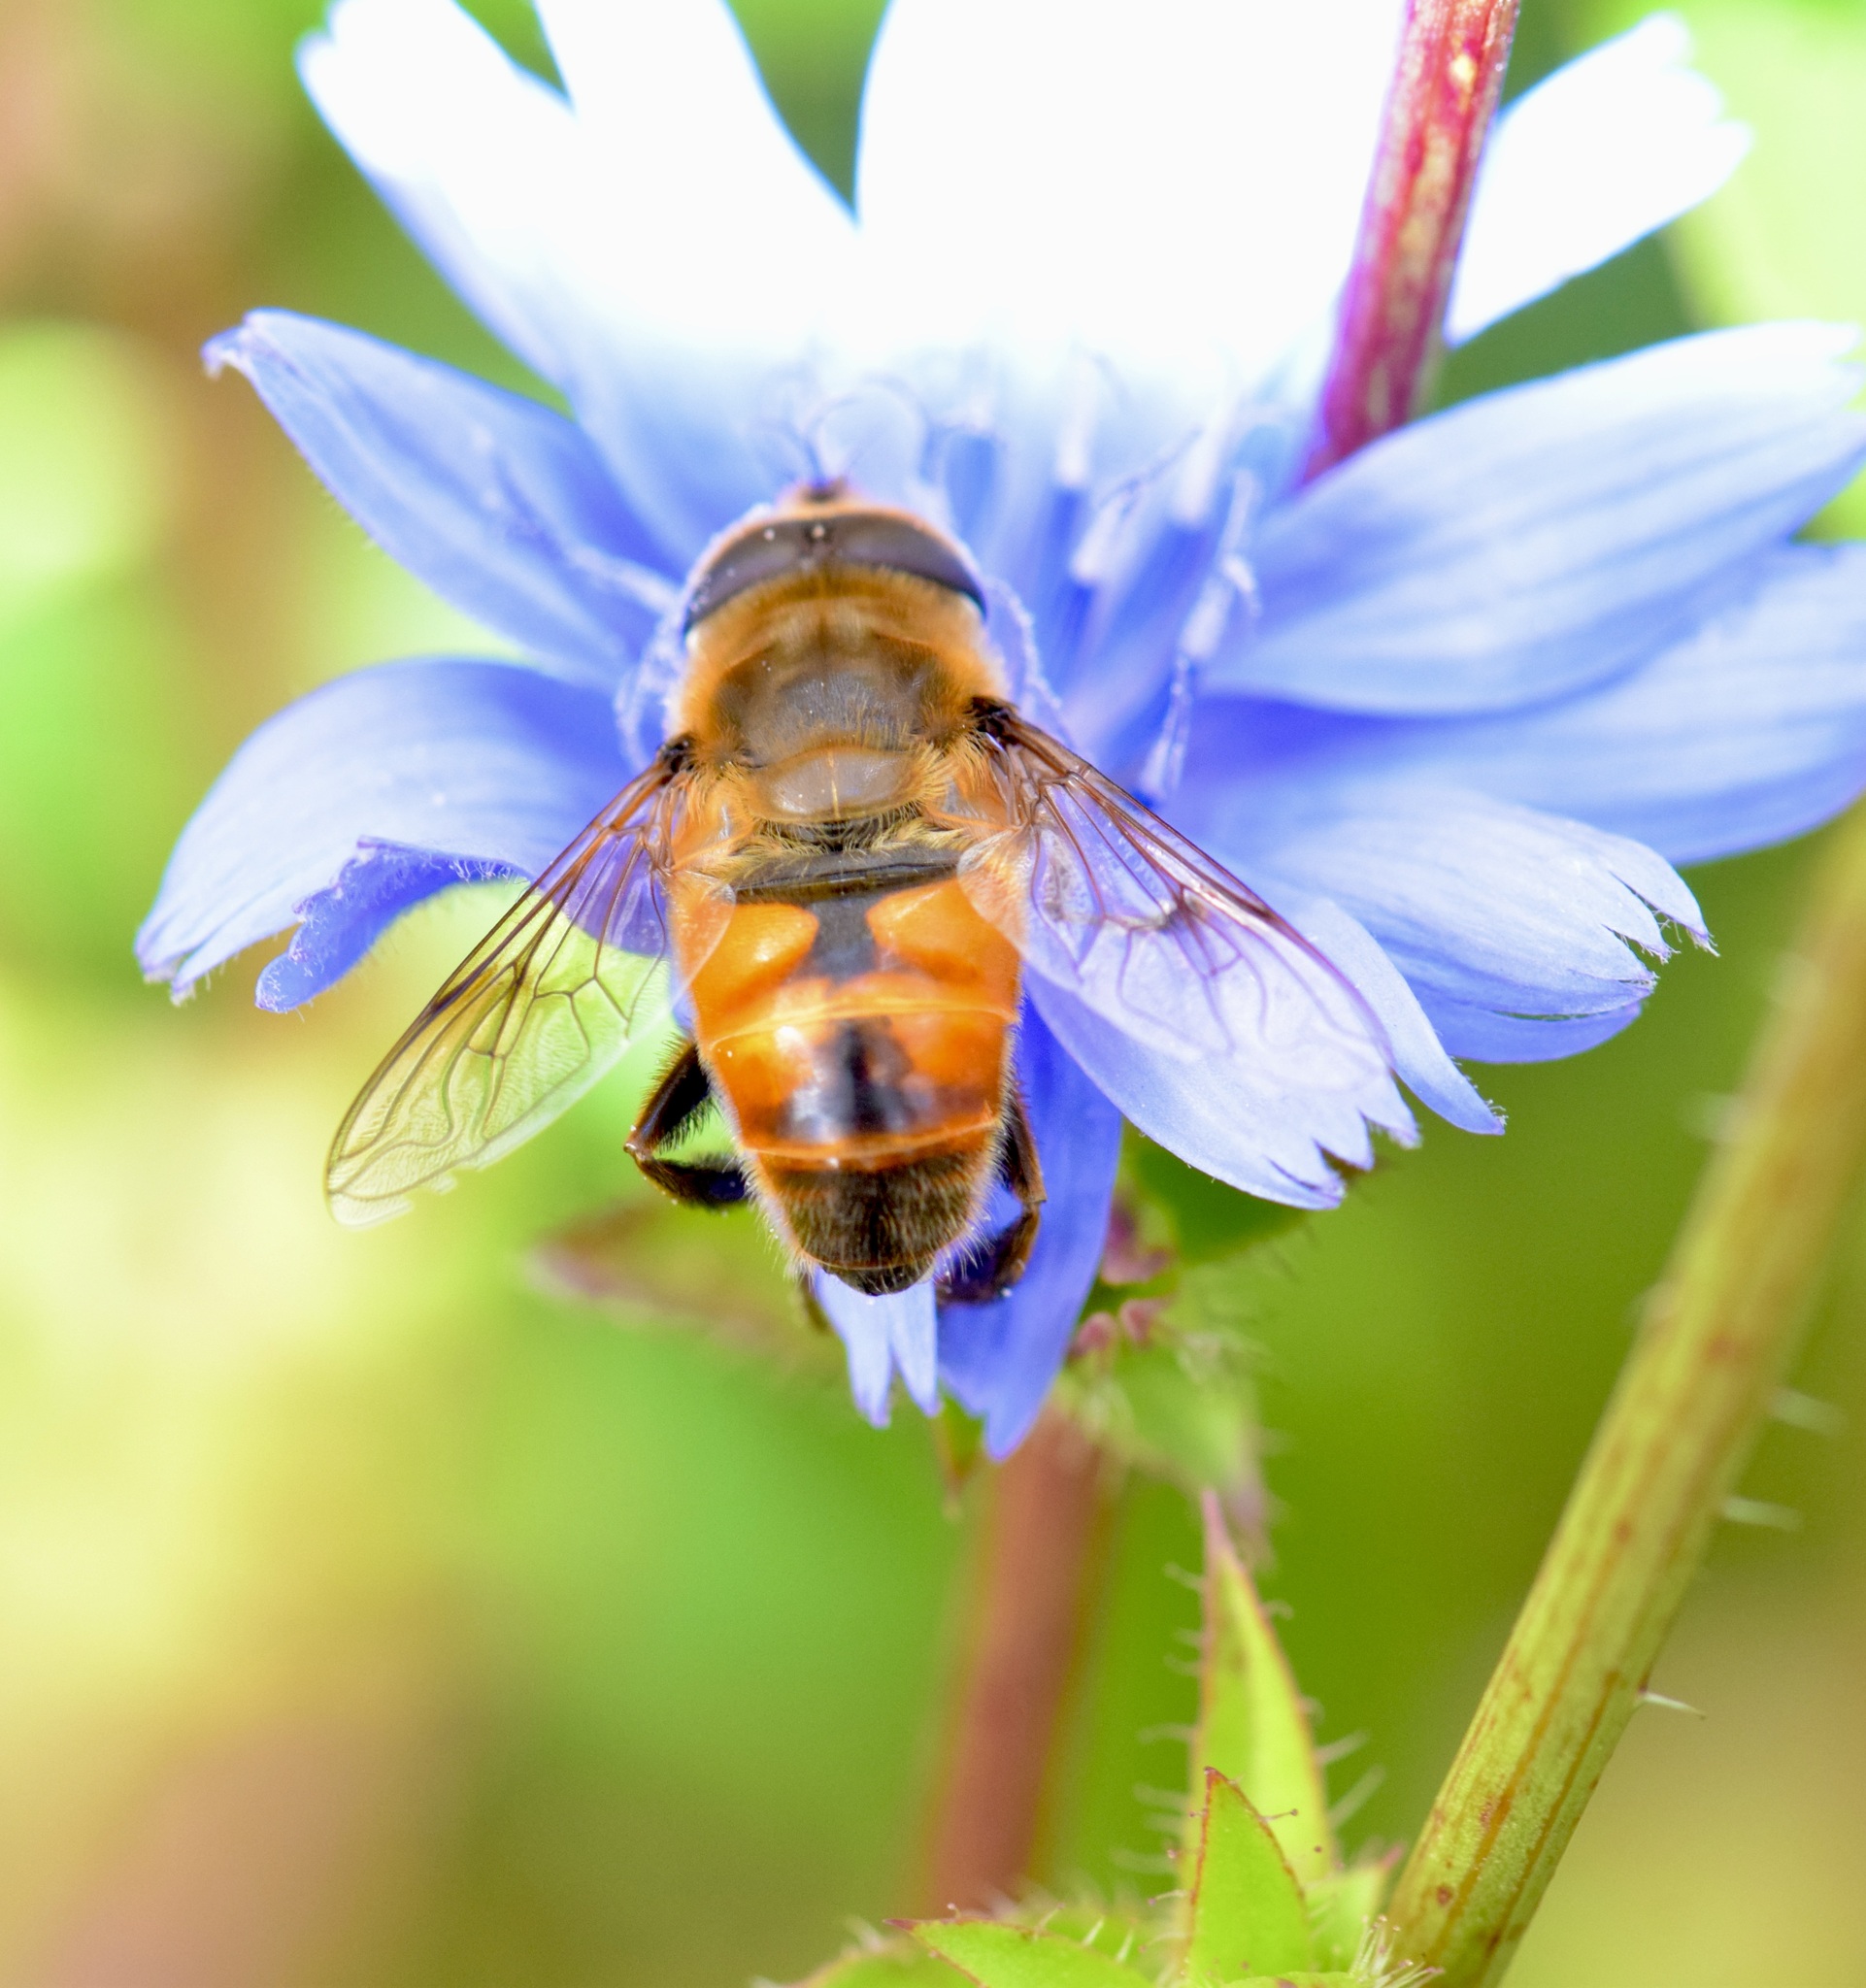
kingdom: Animalia
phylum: Arthropoda
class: Insecta
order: Diptera
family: Syrphidae
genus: Eristalis
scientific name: Eristalis tenax
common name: Drone fly
